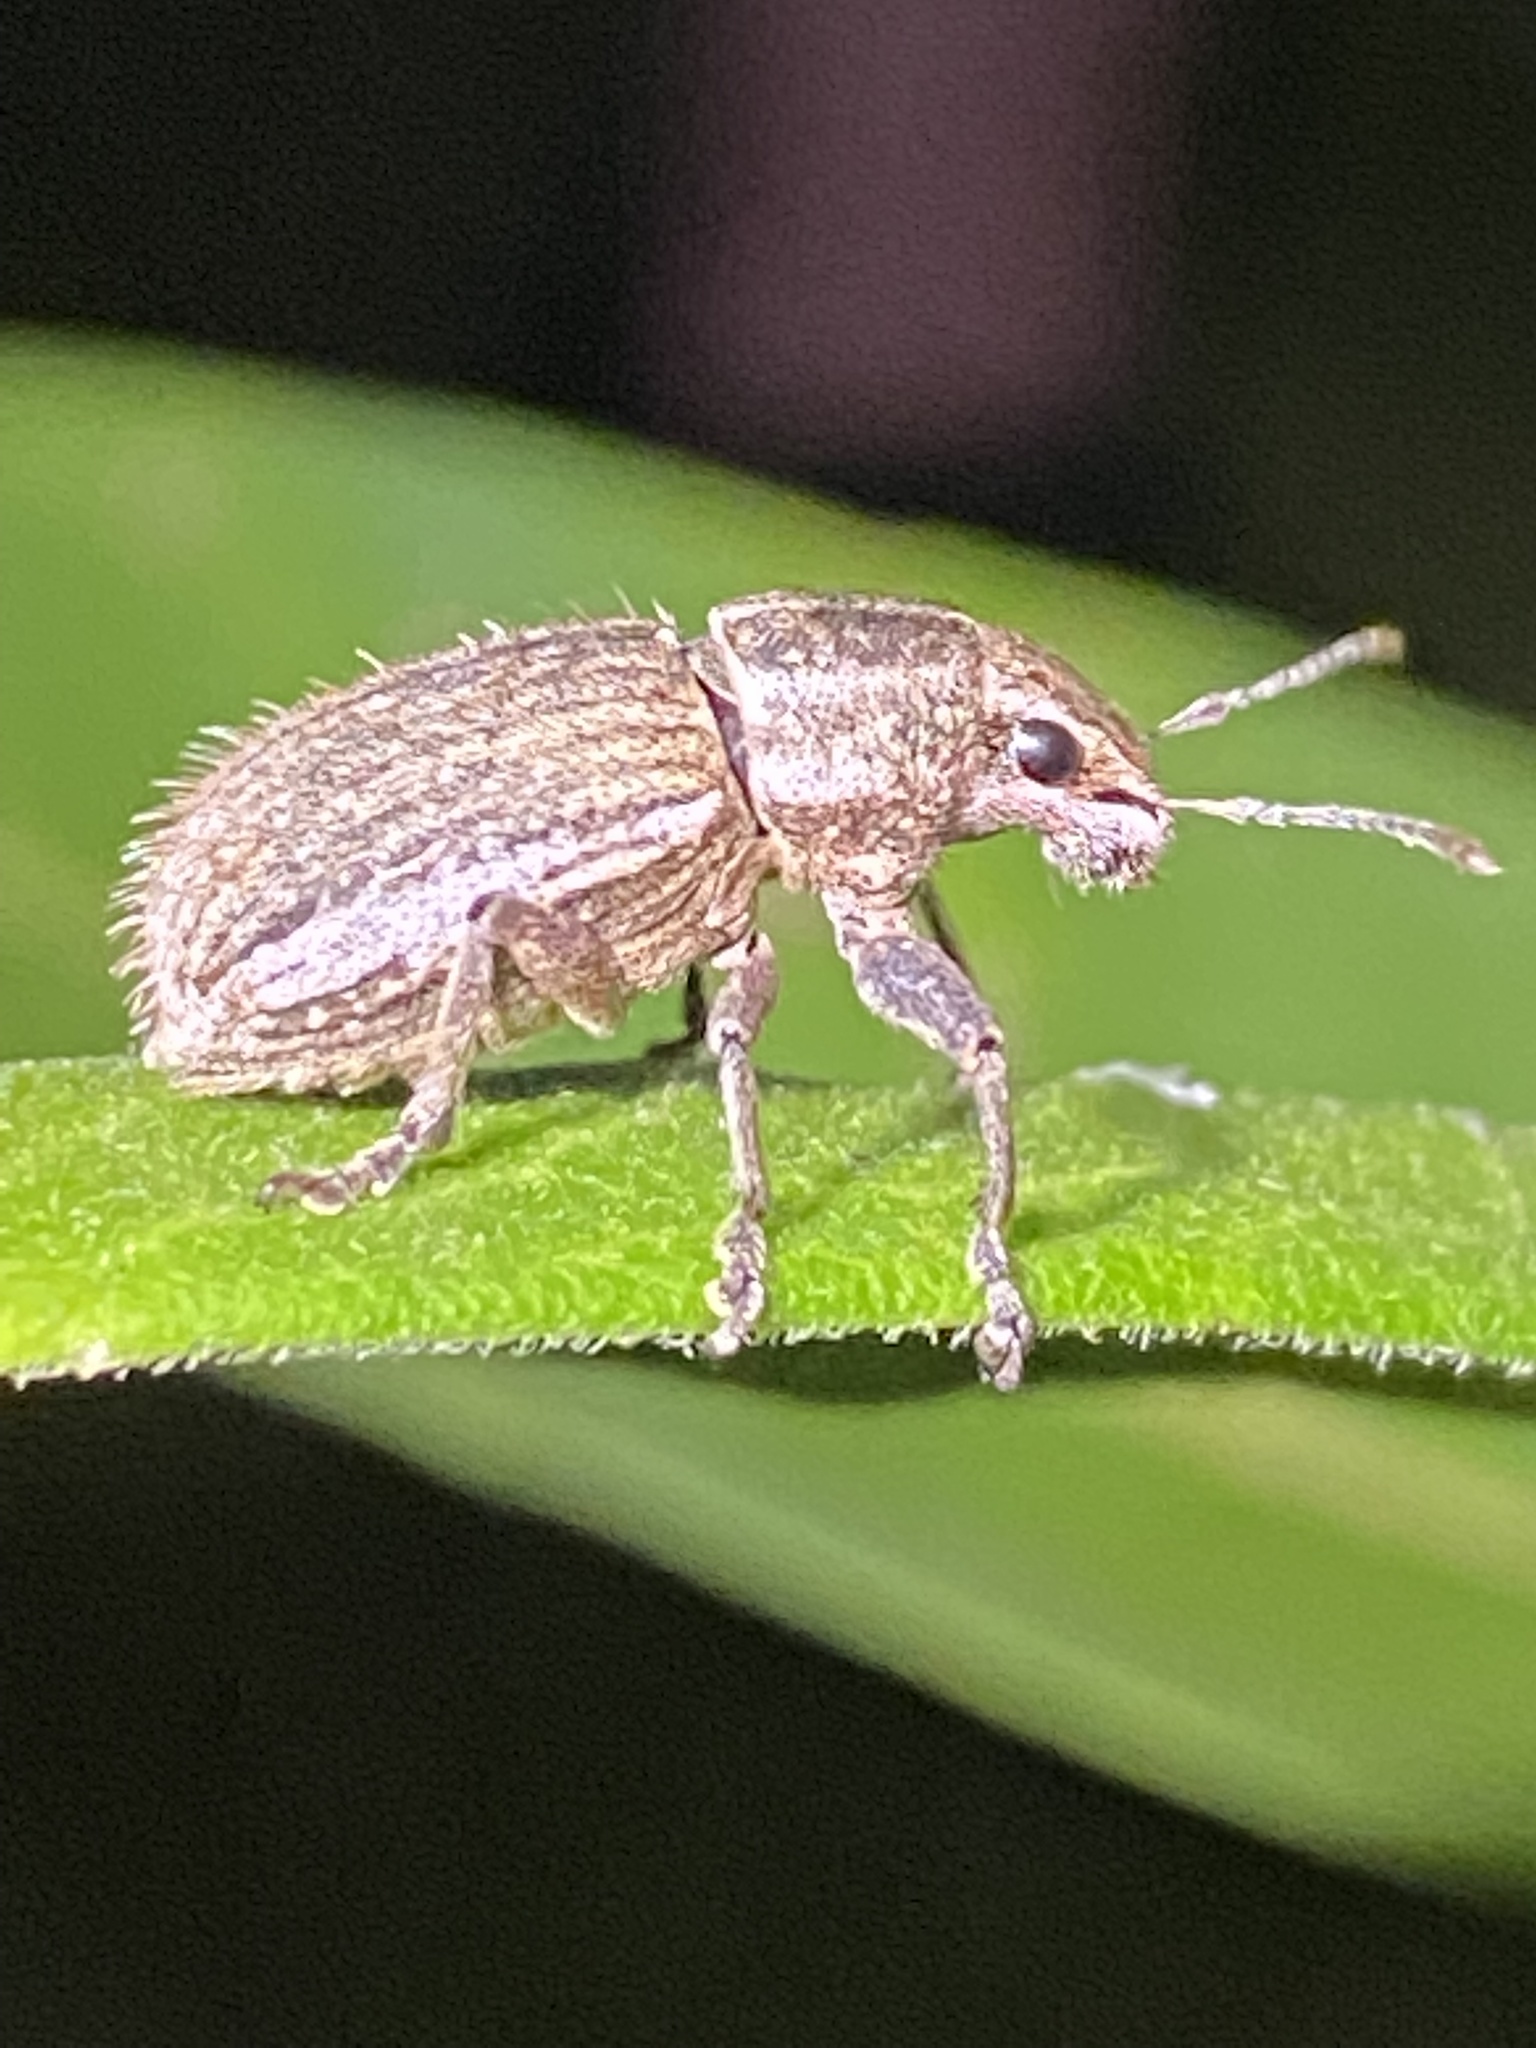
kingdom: Animalia
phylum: Arthropoda
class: Insecta
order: Coleoptera
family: Curculionidae
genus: Naupactus
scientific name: Naupactus leucoloma
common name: Whitefringed beetle
